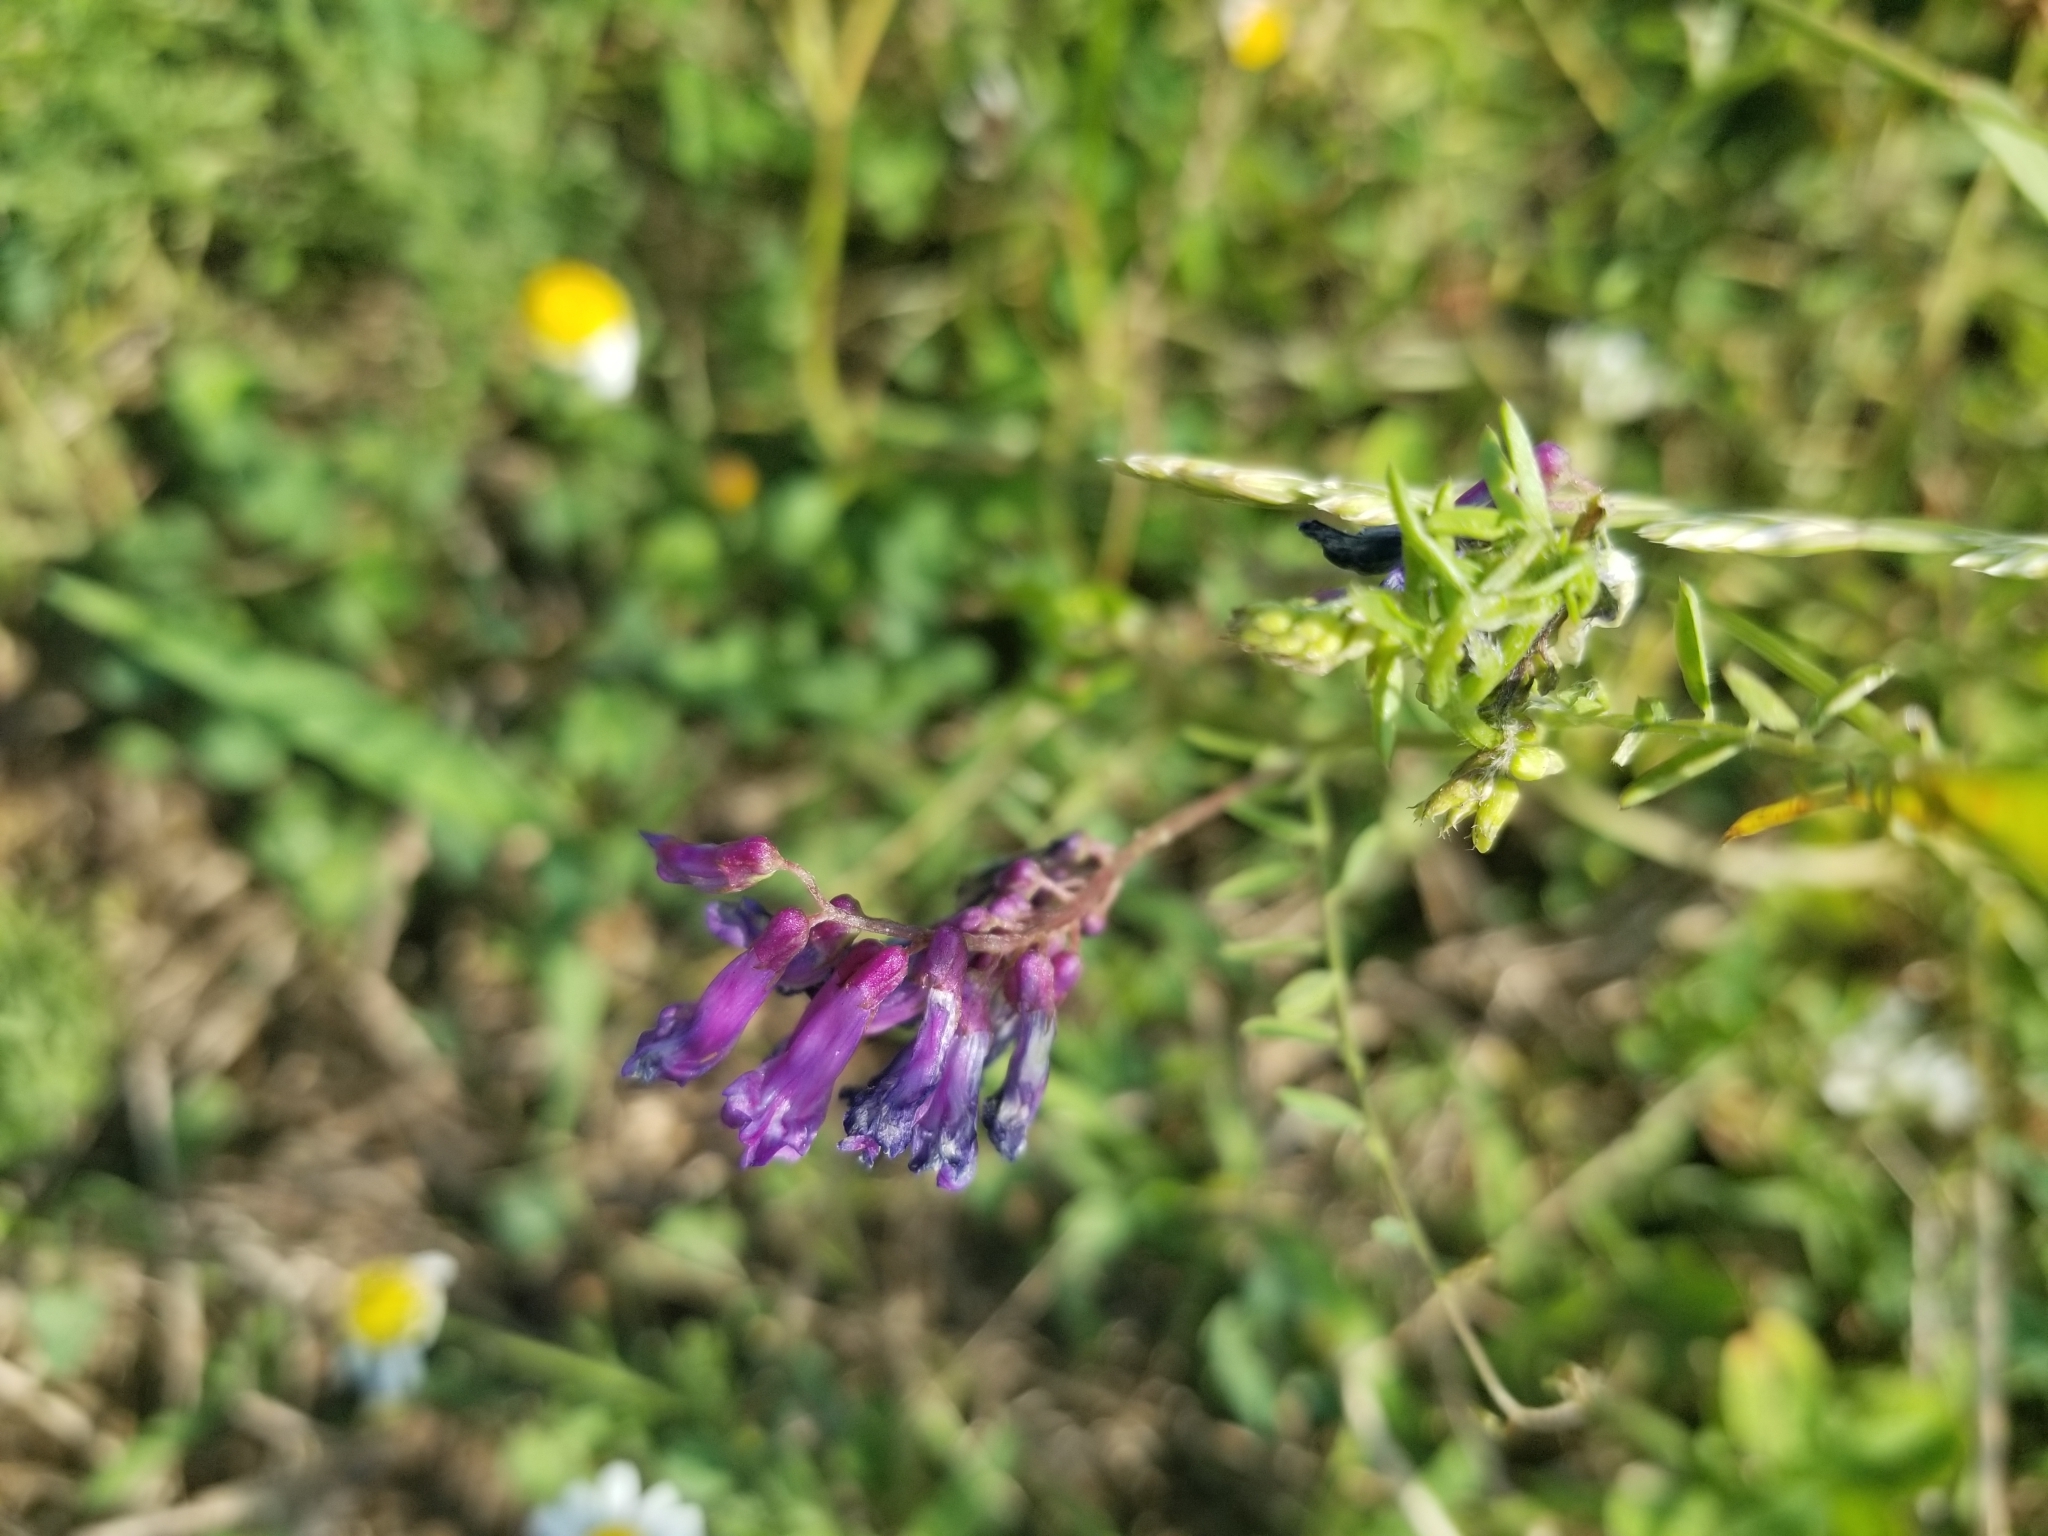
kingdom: Plantae
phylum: Tracheophyta
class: Magnoliopsida
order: Fabales
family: Fabaceae
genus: Vicia
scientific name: Vicia
